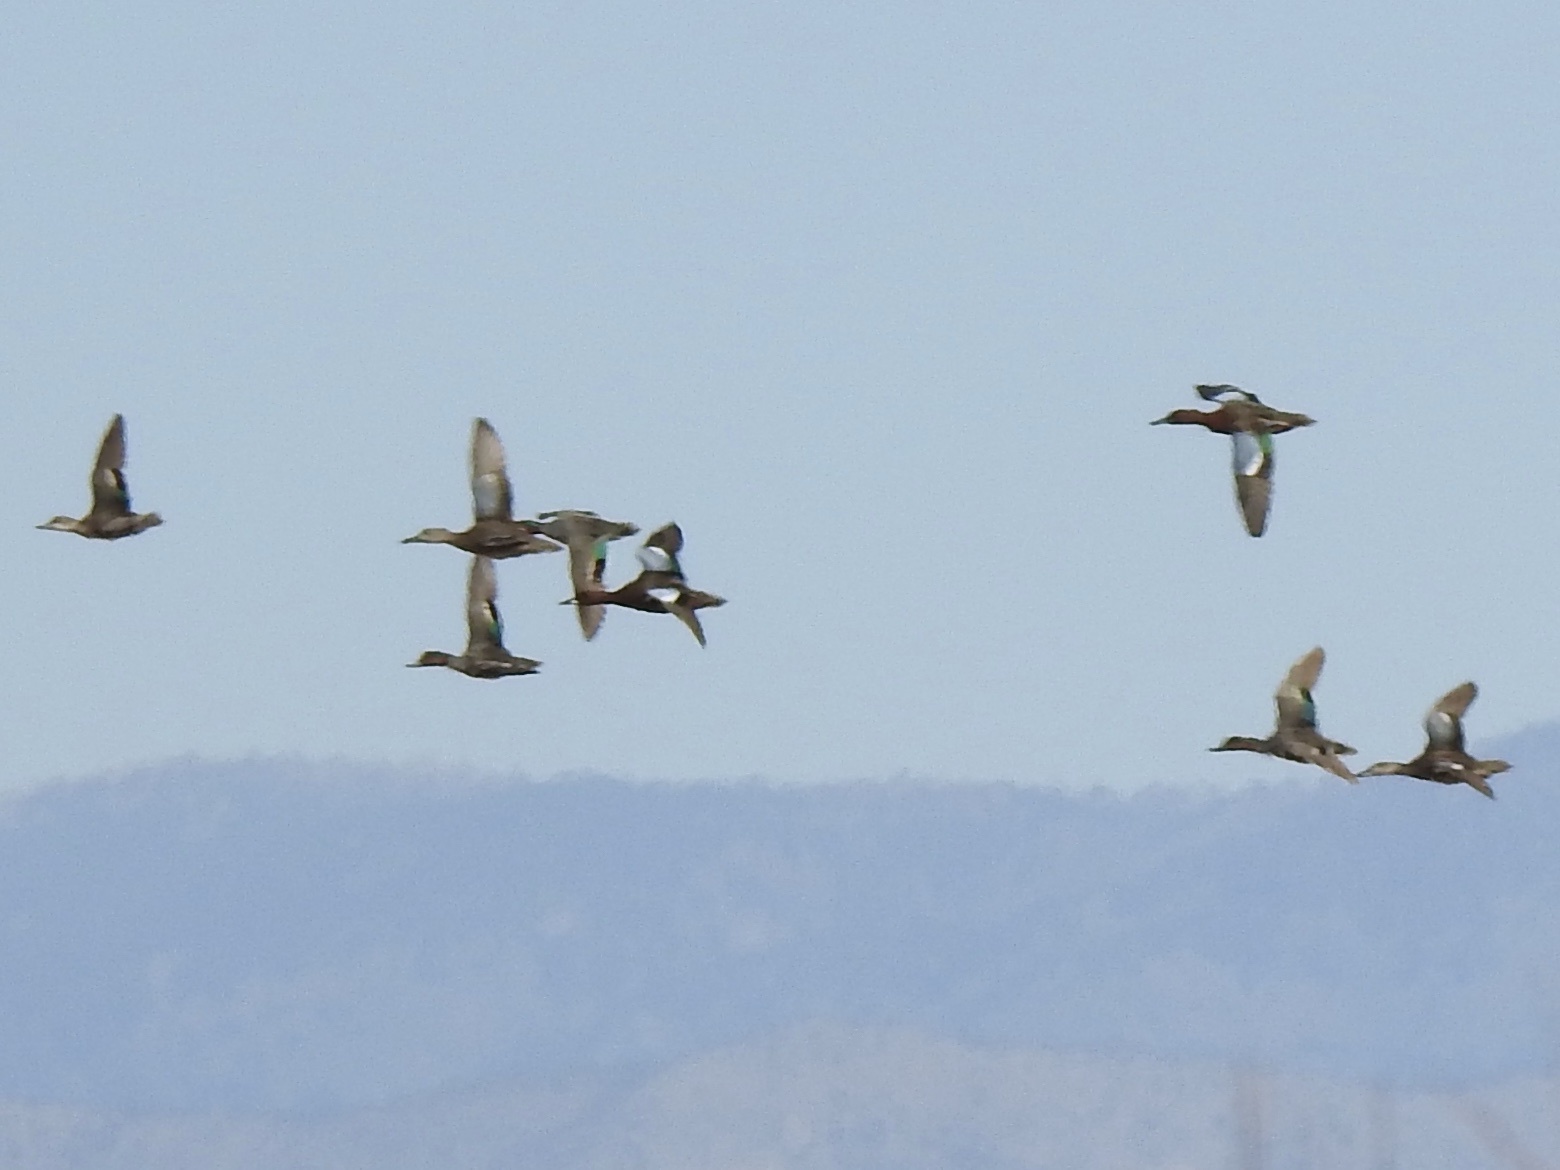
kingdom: Animalia
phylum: Chordata
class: Aves
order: Anseriformes
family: Anatidae
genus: Spatula
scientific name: Spatula cyanoptera
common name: Cinnamon teal
